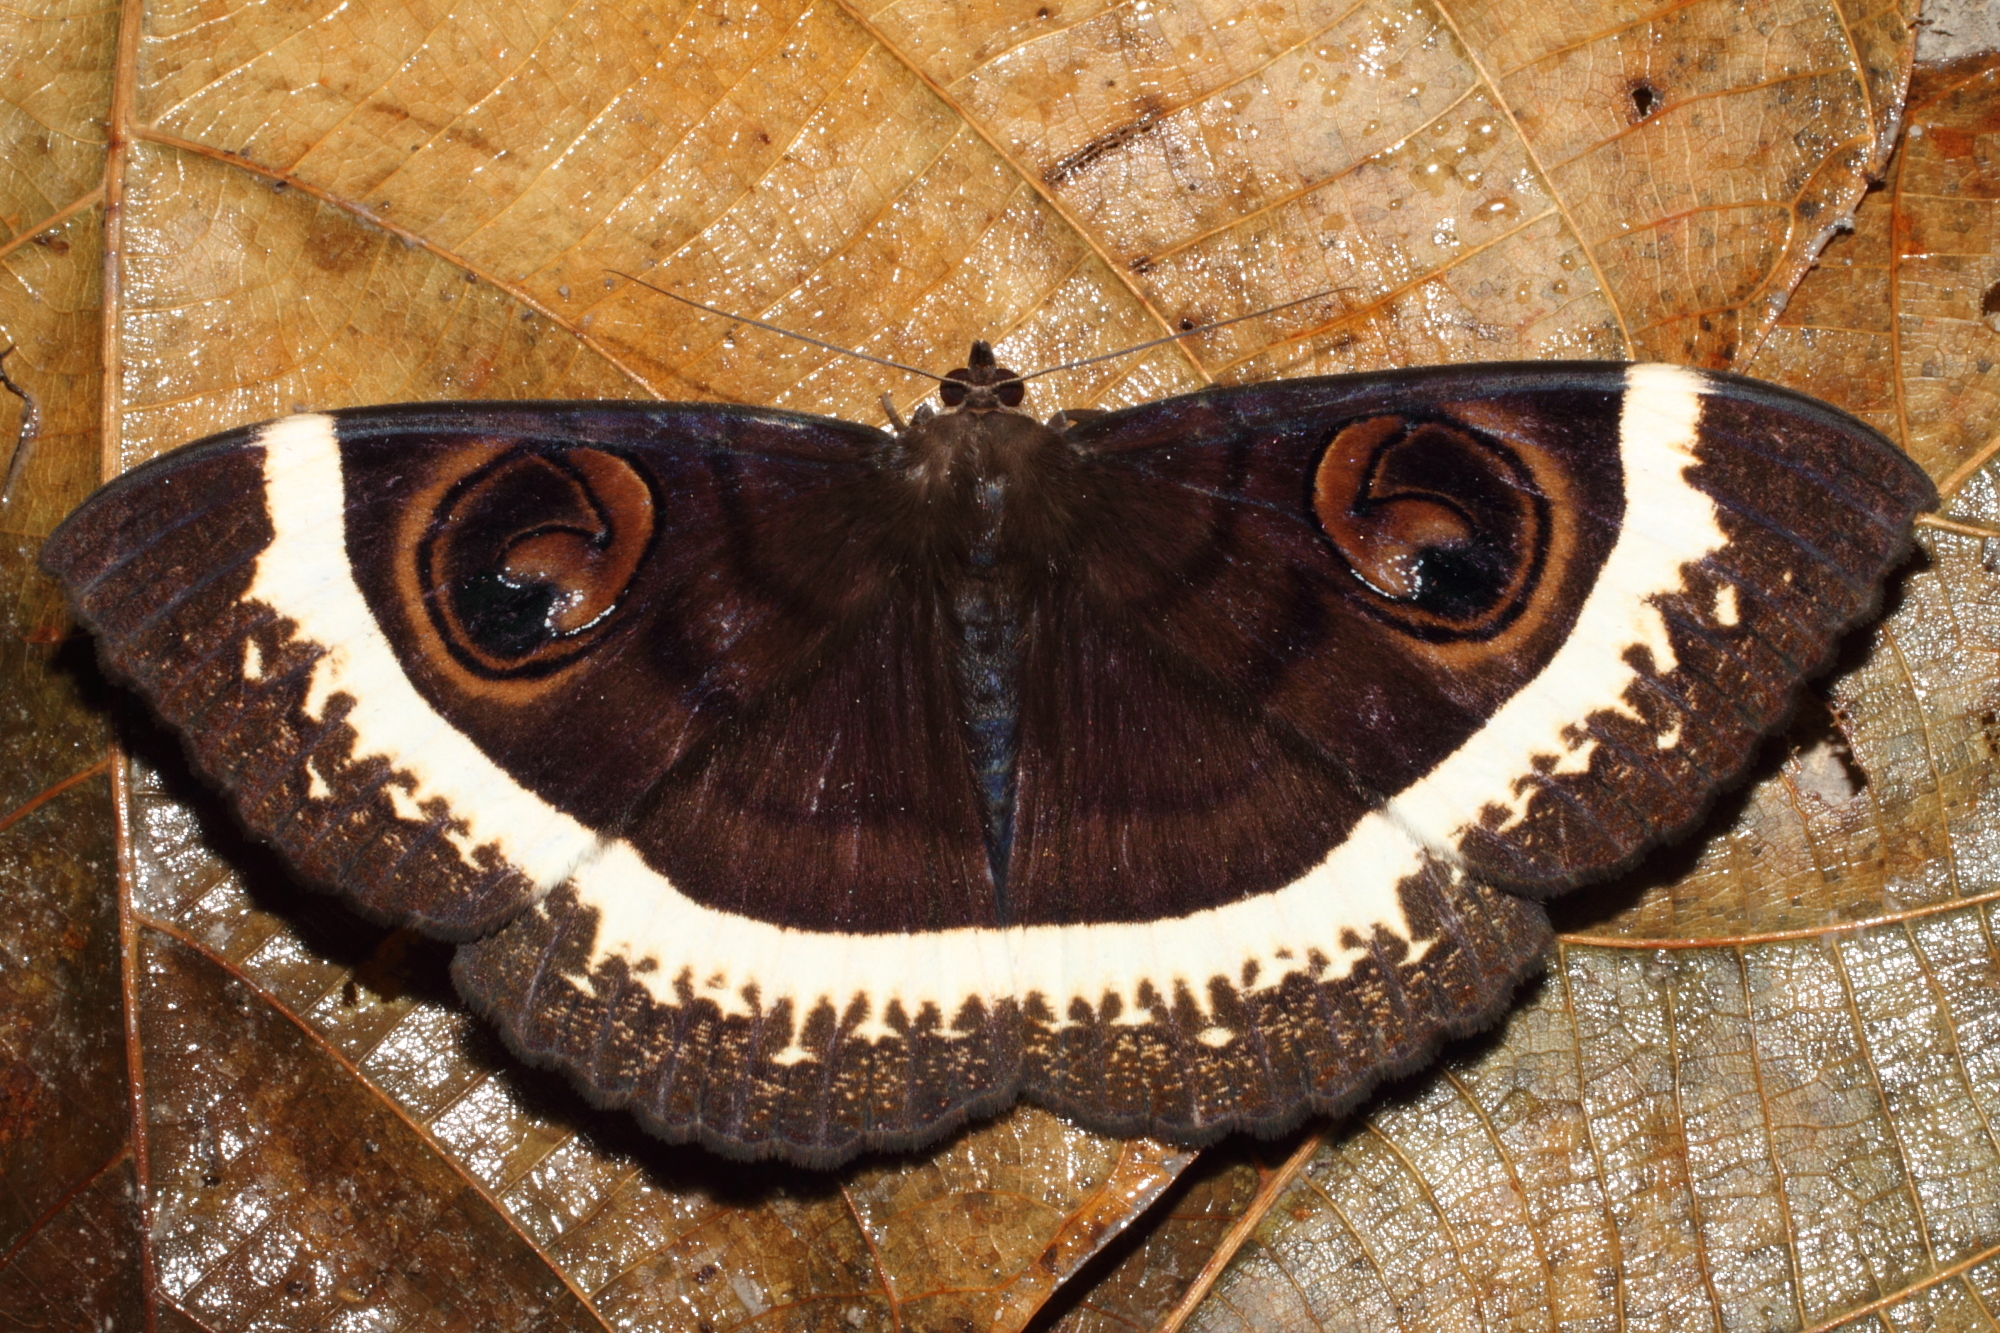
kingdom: Animalia
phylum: Arthropoda
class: Insecta
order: Lepidoptera
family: Erebidae
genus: Erebus
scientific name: Erebus gemmans
